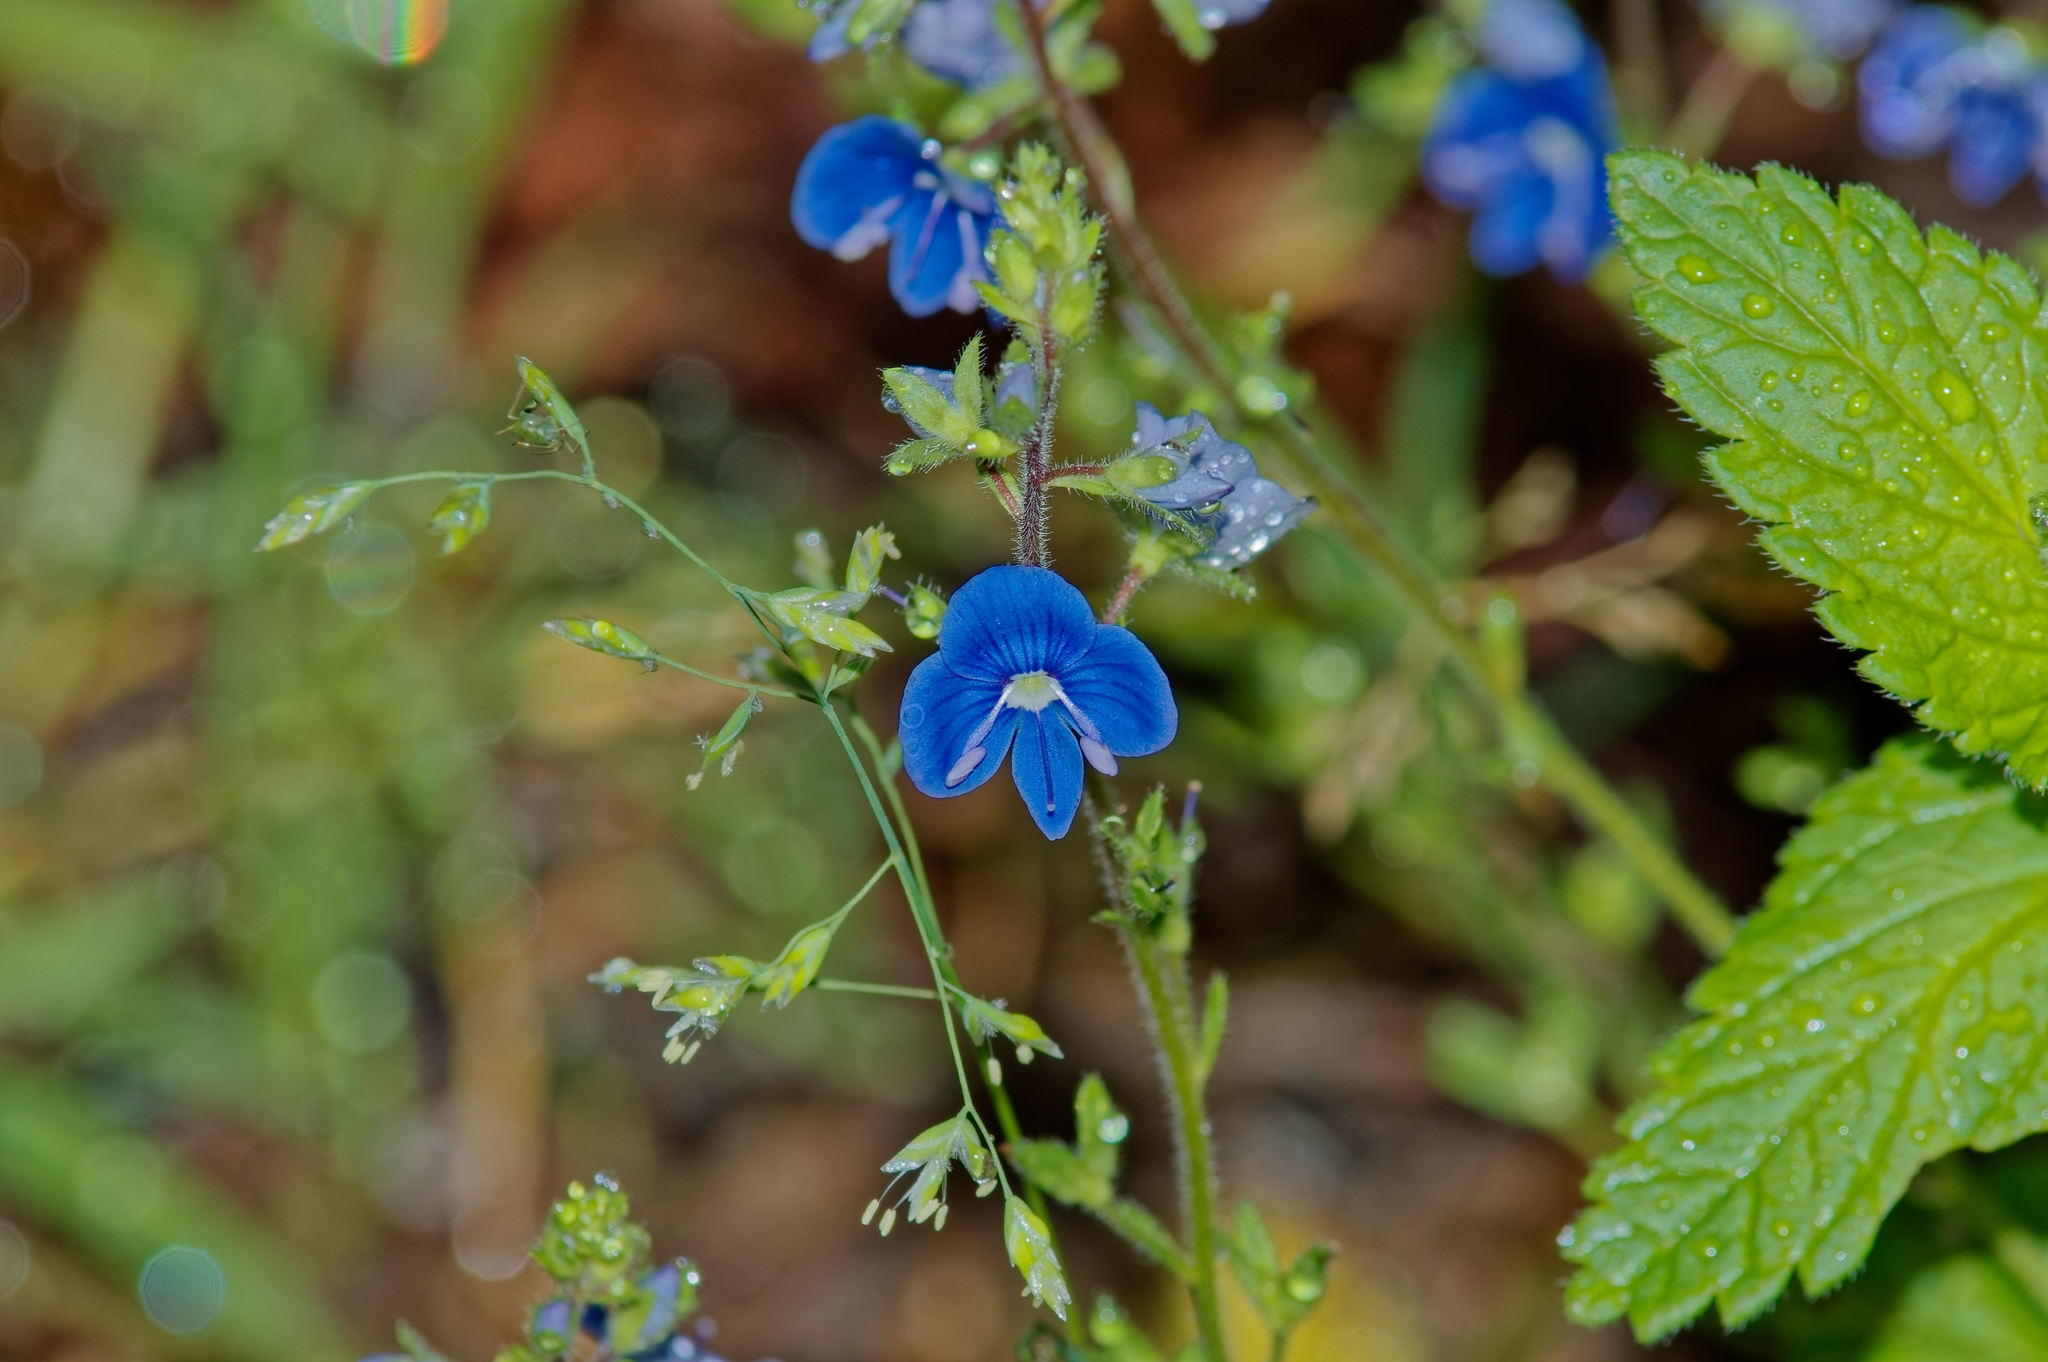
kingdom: Plantae
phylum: Tracheophyta
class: Magnoliopsida
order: Lamiales
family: Plantaginaceae
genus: Veronica
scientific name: Veronica chamaedrys
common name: Germander speedwell
